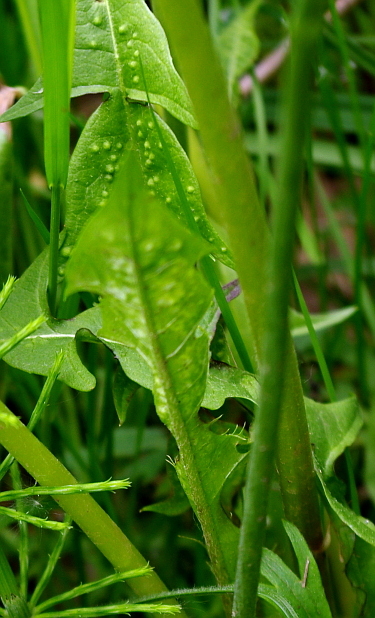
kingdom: Plantae
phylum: Tracheophyta
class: Magnoliopsida
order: Asterales
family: Asteraceae
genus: Taraxacum
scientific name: Taraxacum officinale
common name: Common dandelion
